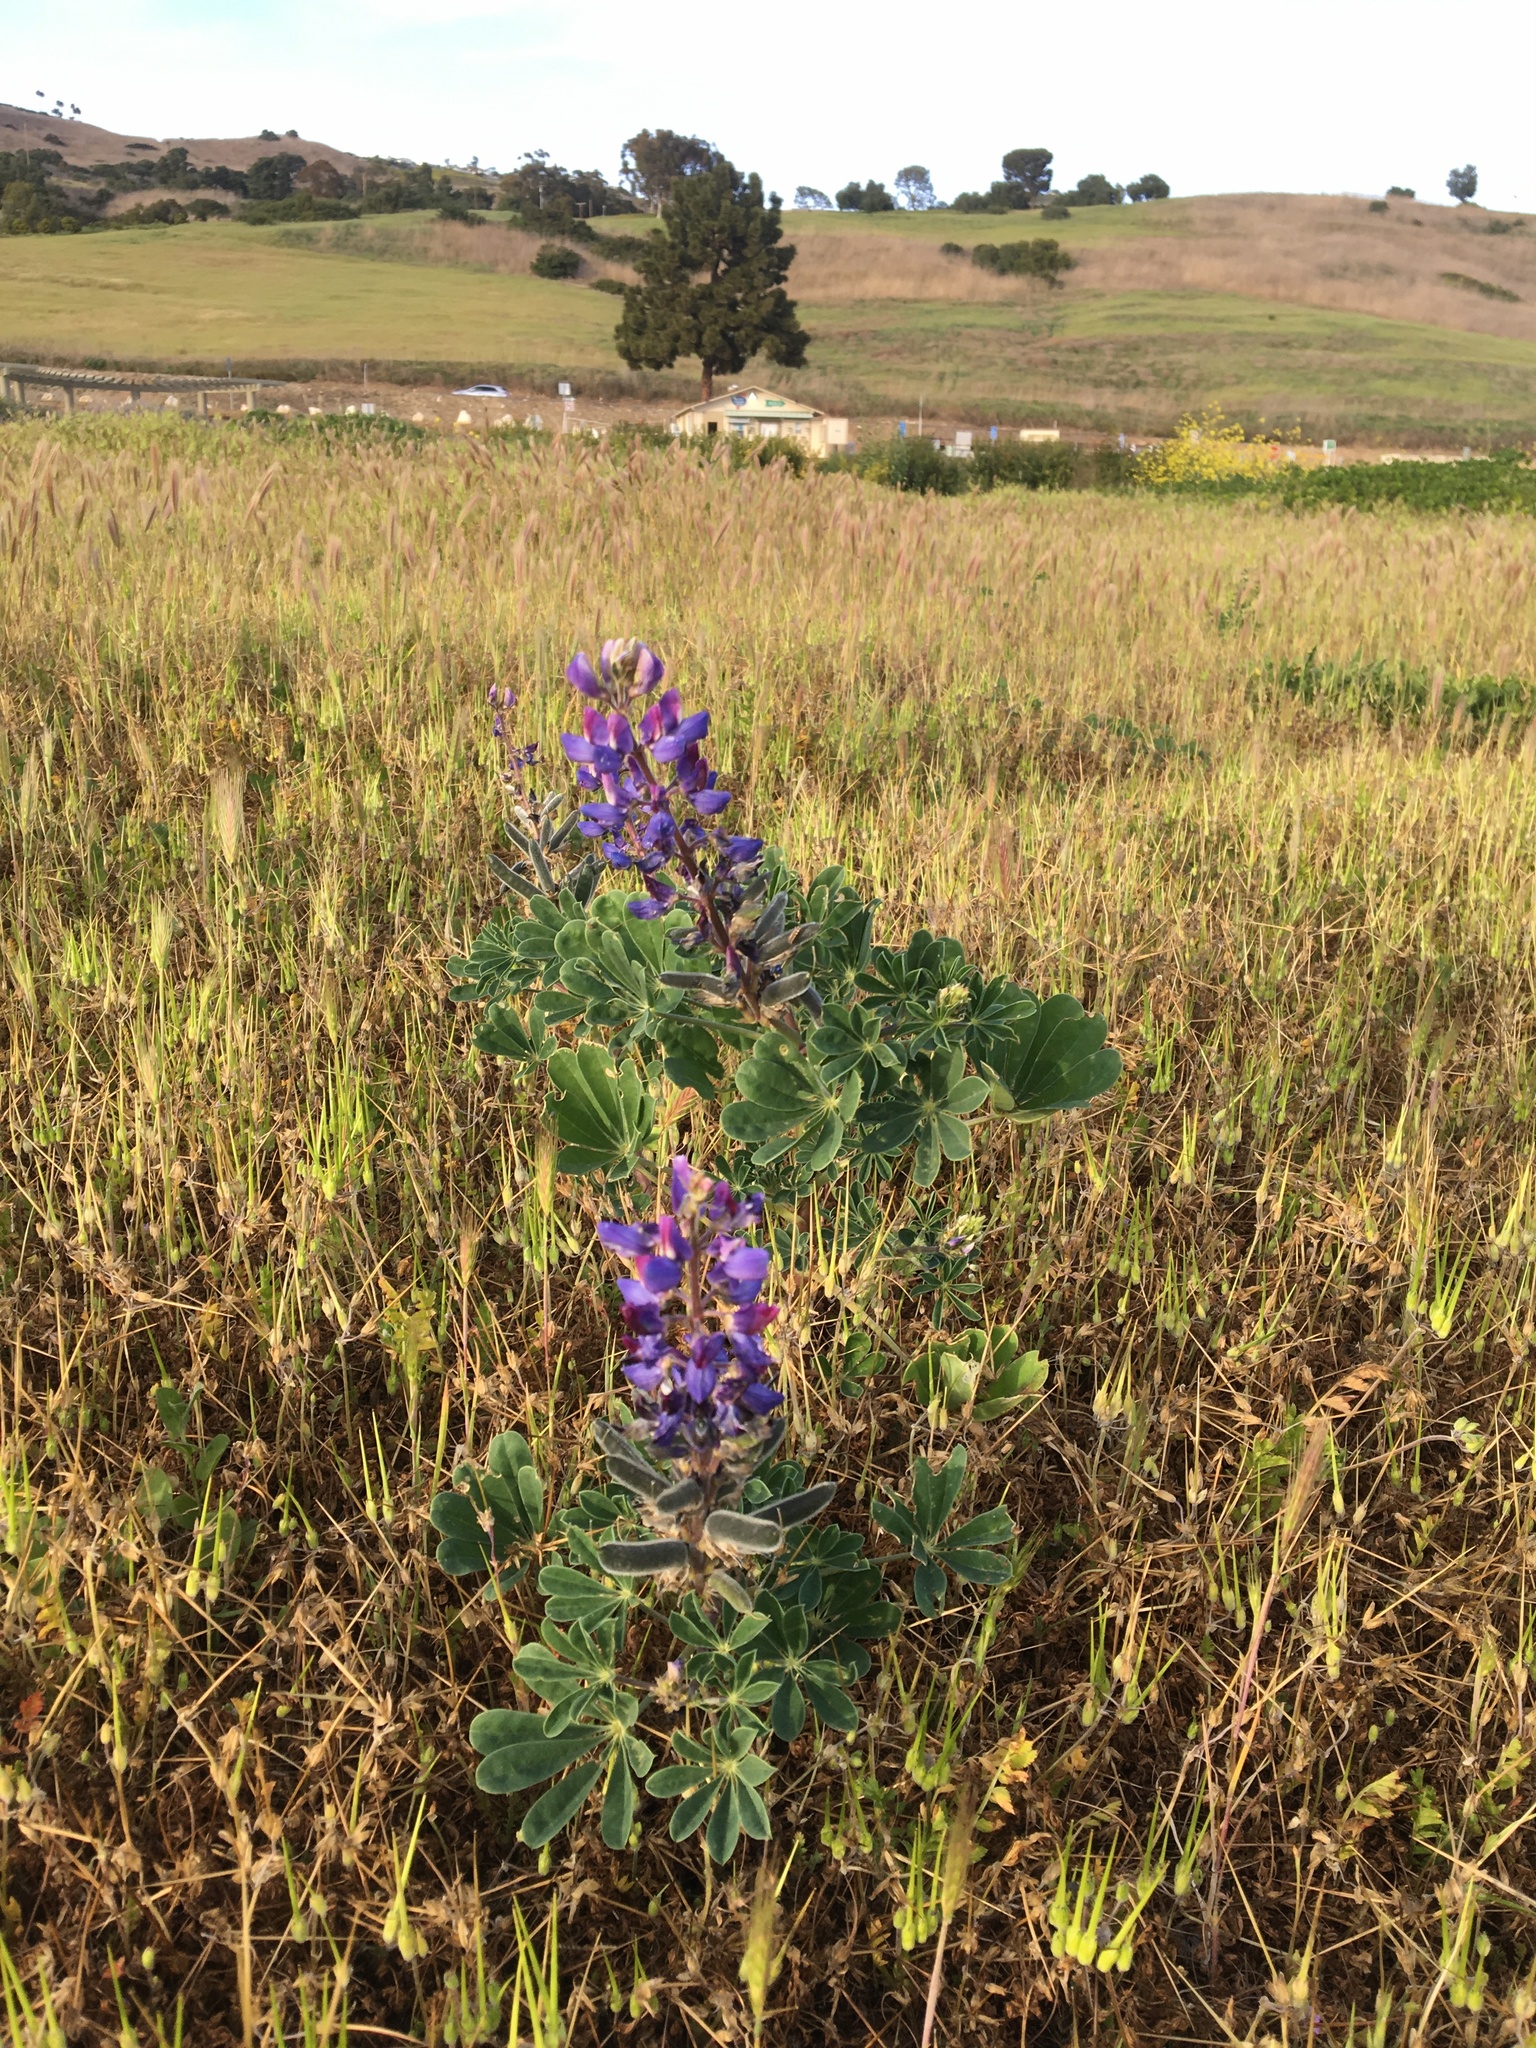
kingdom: Plantae
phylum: Tracheophyta
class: Magnoliopsida
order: Fabales
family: Fabaceae
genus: Lupinus
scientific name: Lupinus succulentus
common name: Arroyo lupine
